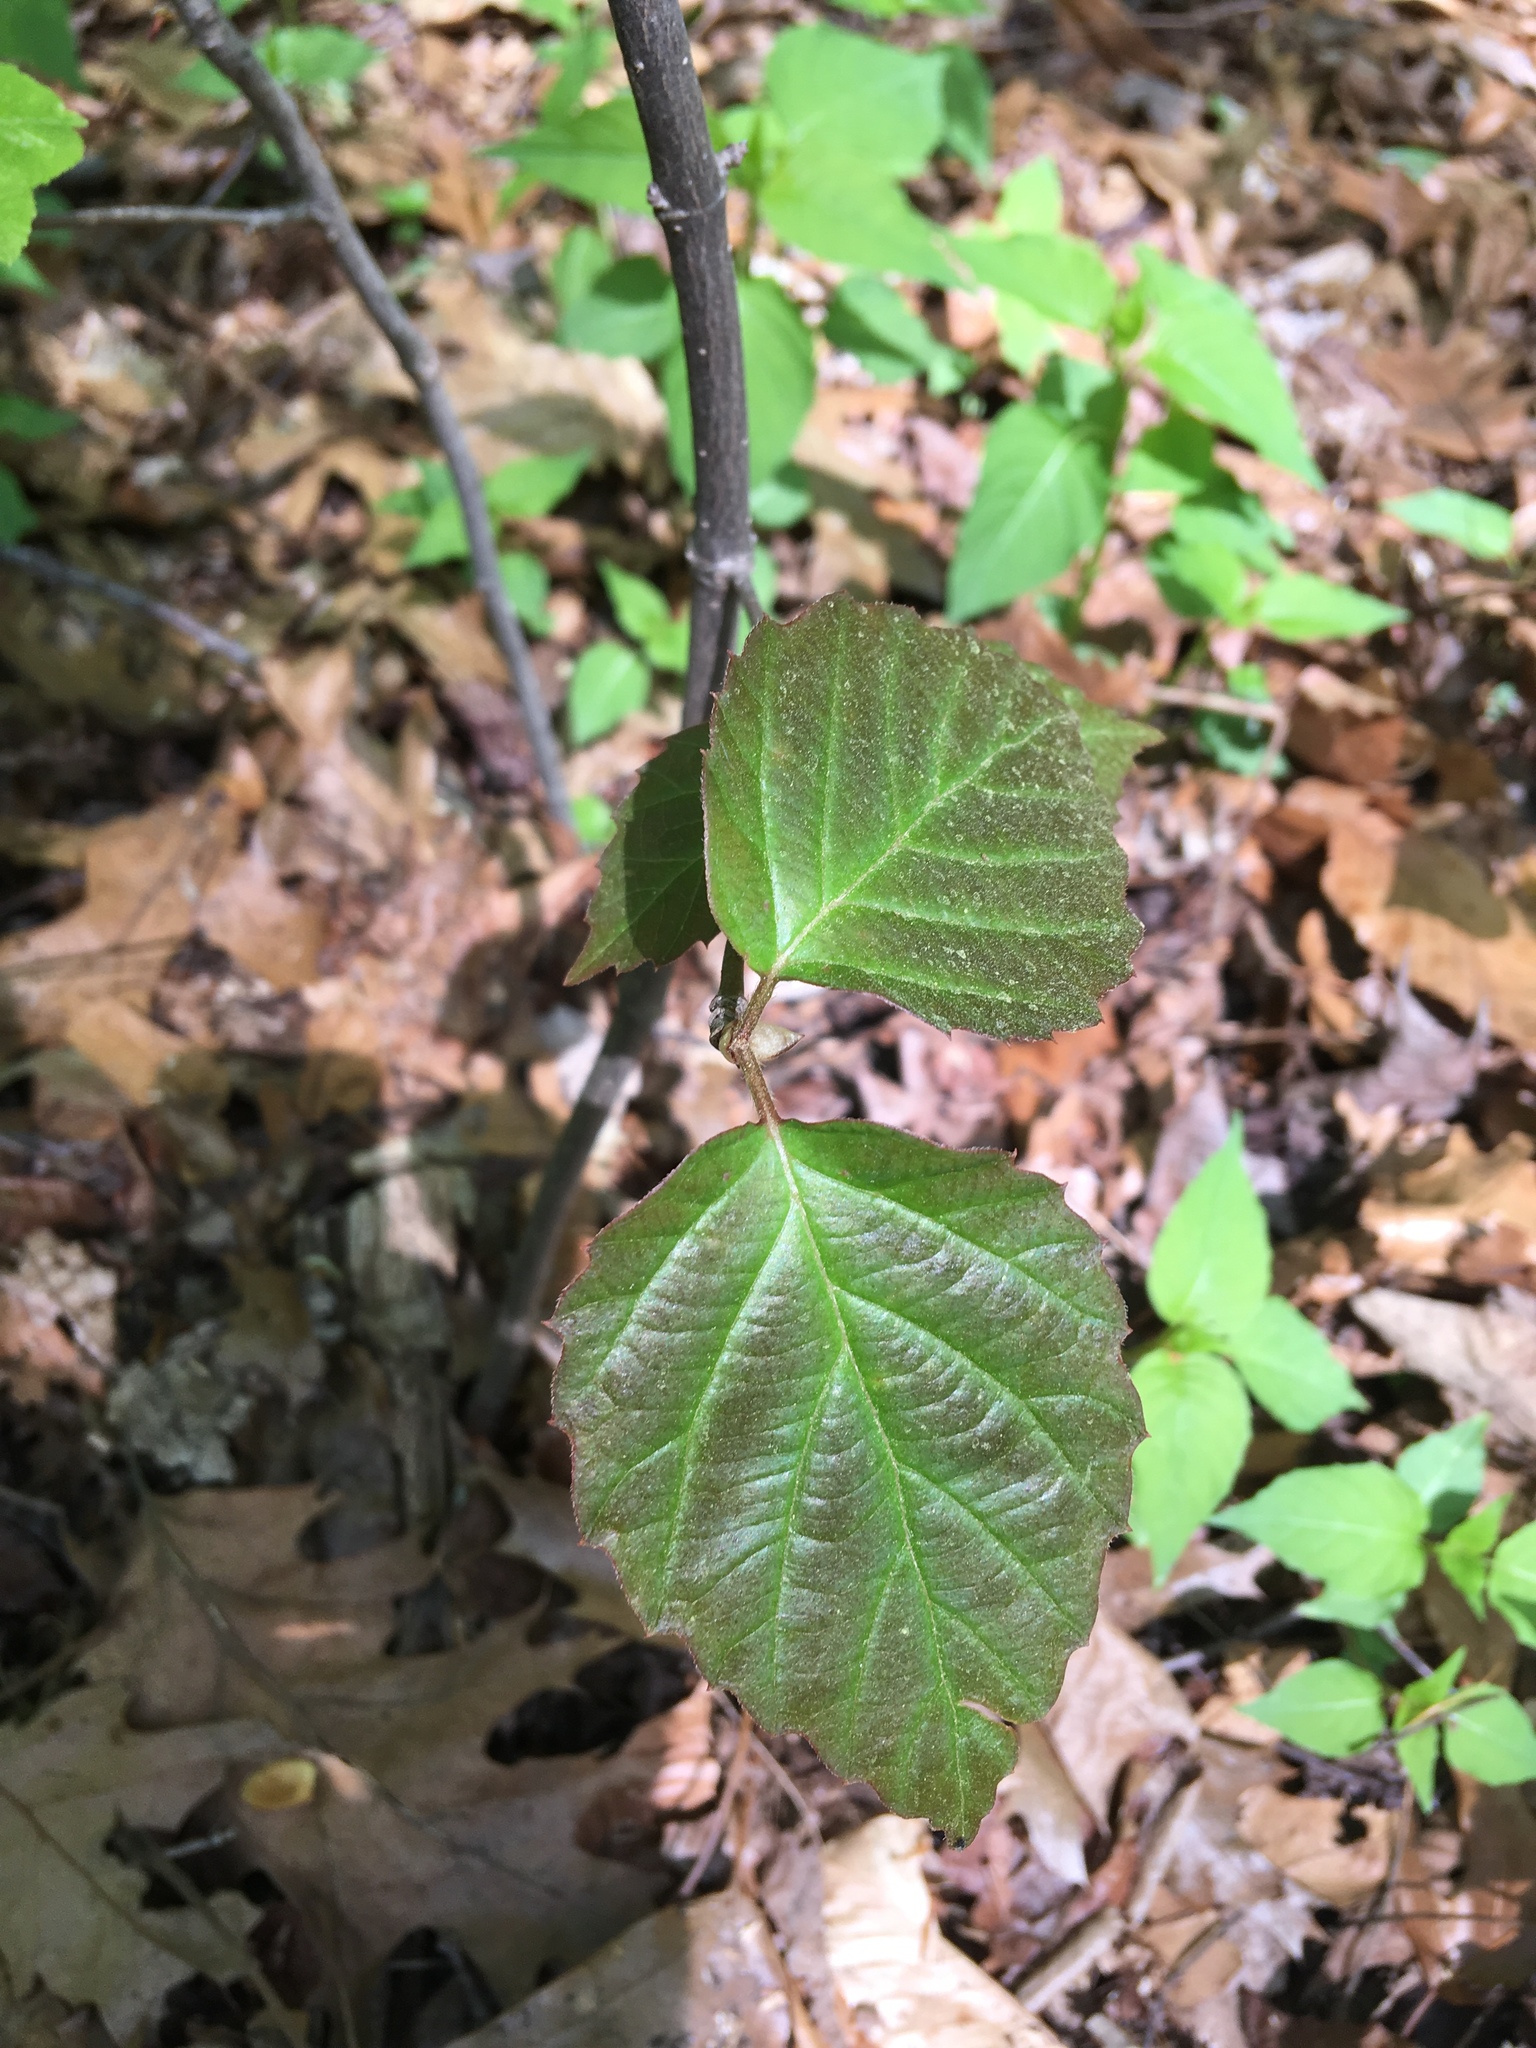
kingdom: Plantae
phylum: Tracheophyta
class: Magnoliopsida
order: Dipsacales
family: Viburnaceae
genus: Viburnum
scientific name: Viburnum setigerum
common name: Tea viburnum
